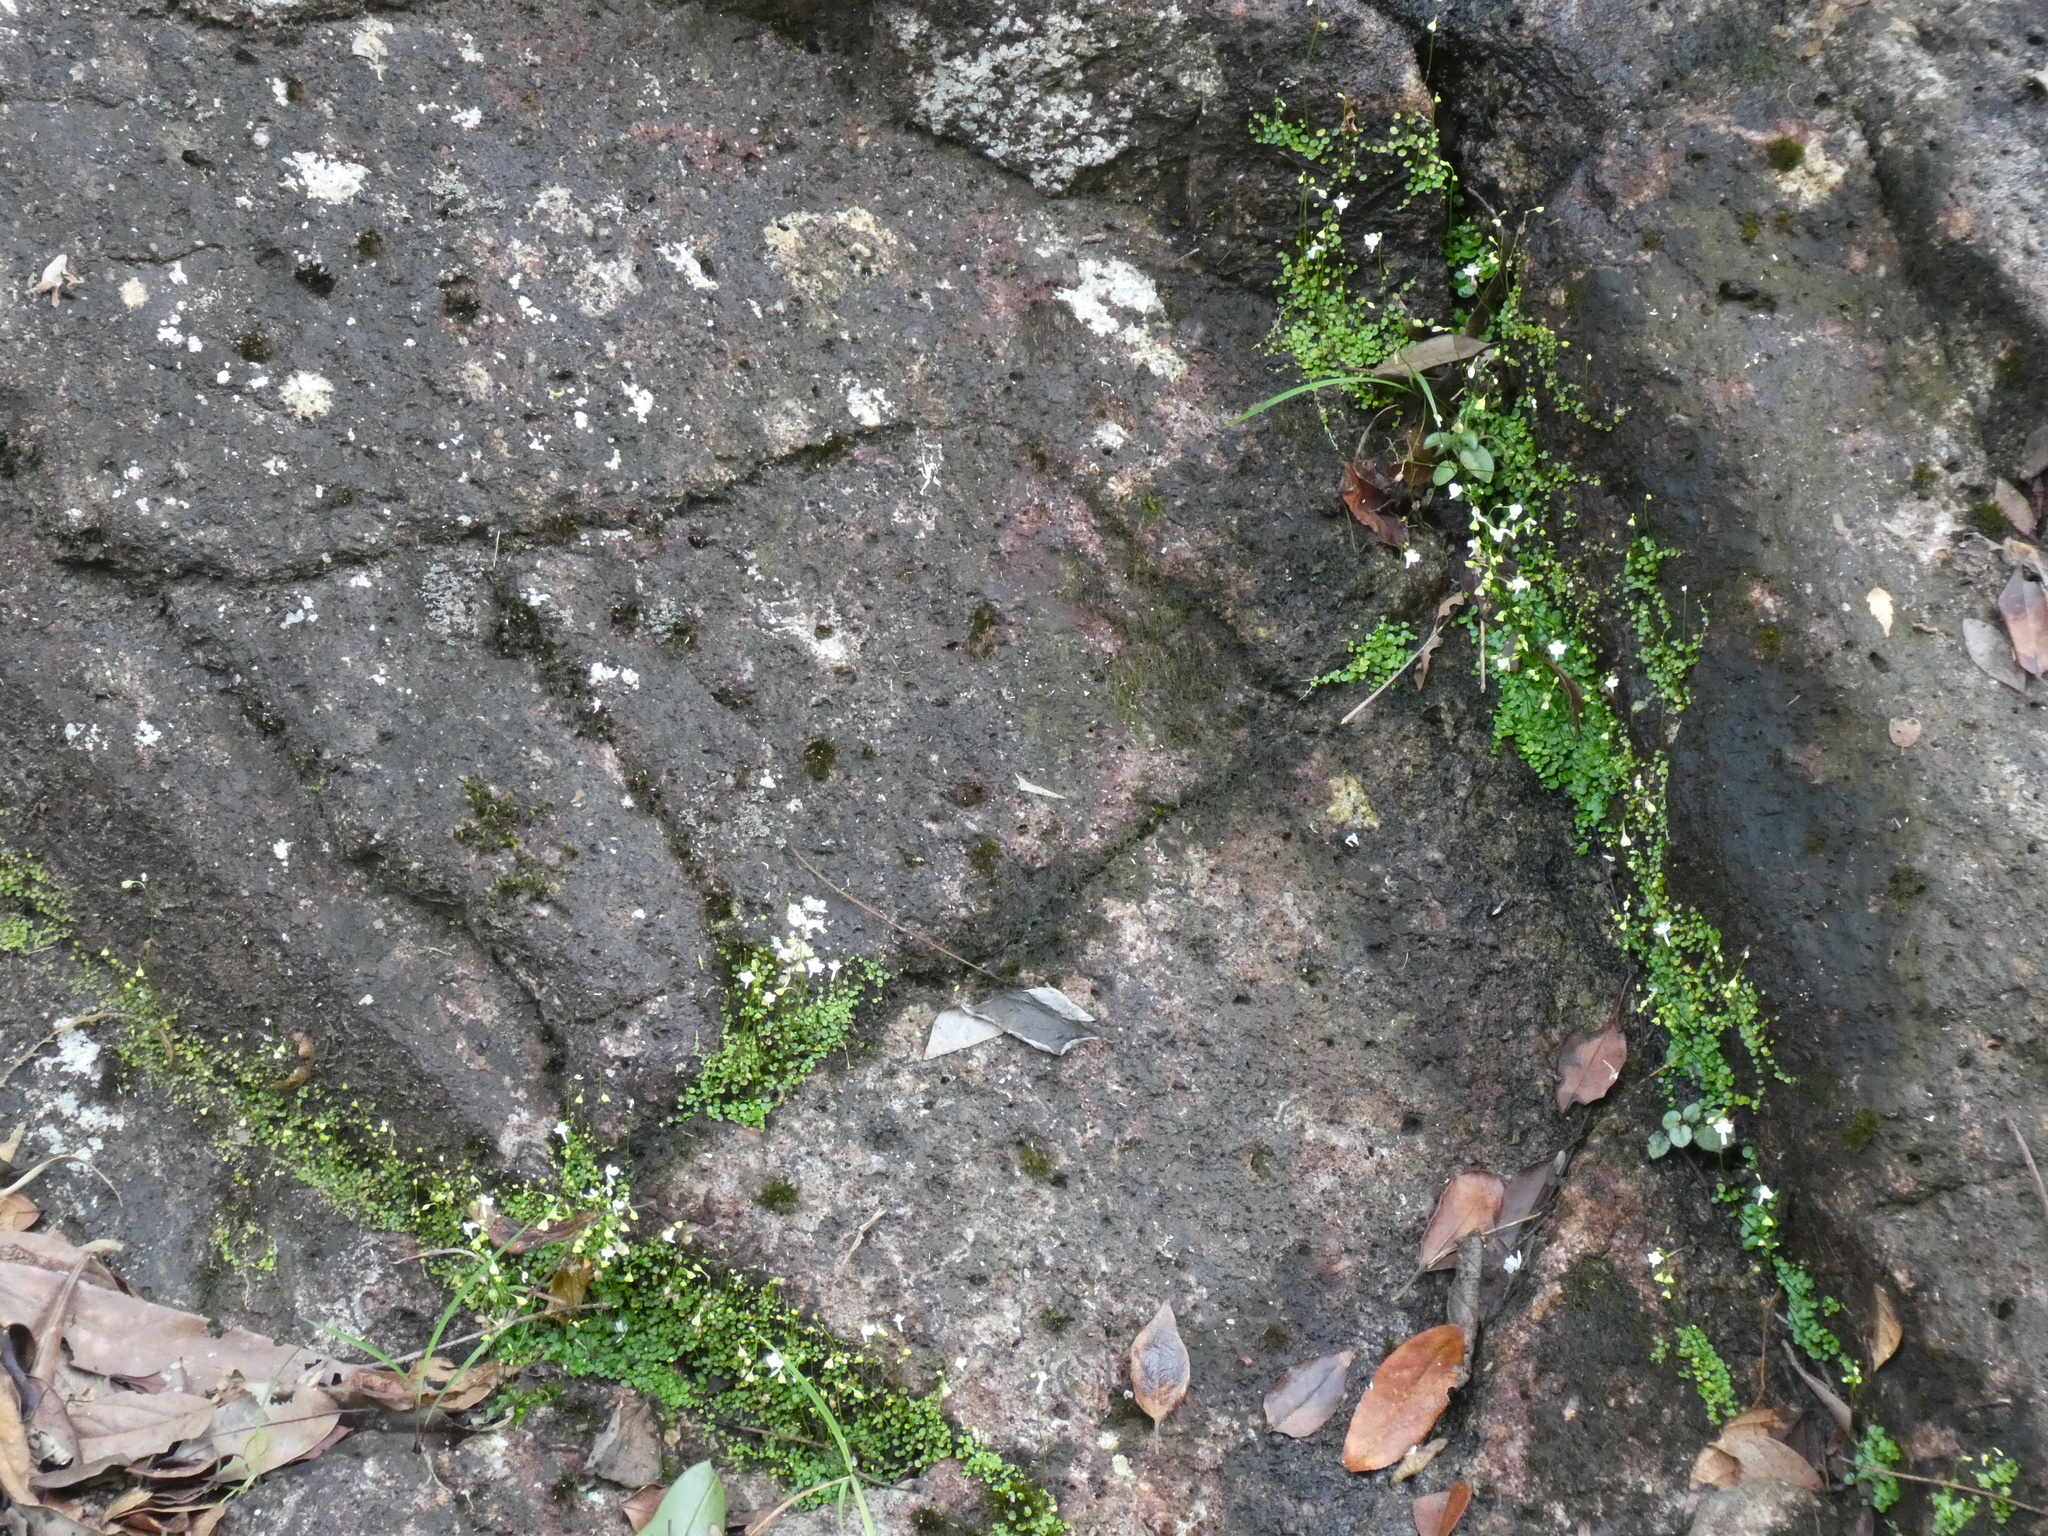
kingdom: Plantae
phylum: Tracheophyta
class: Magnoliopsida
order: Lamiales
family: Lentibulariaceae
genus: Utricularia
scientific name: Utricularia striatula
